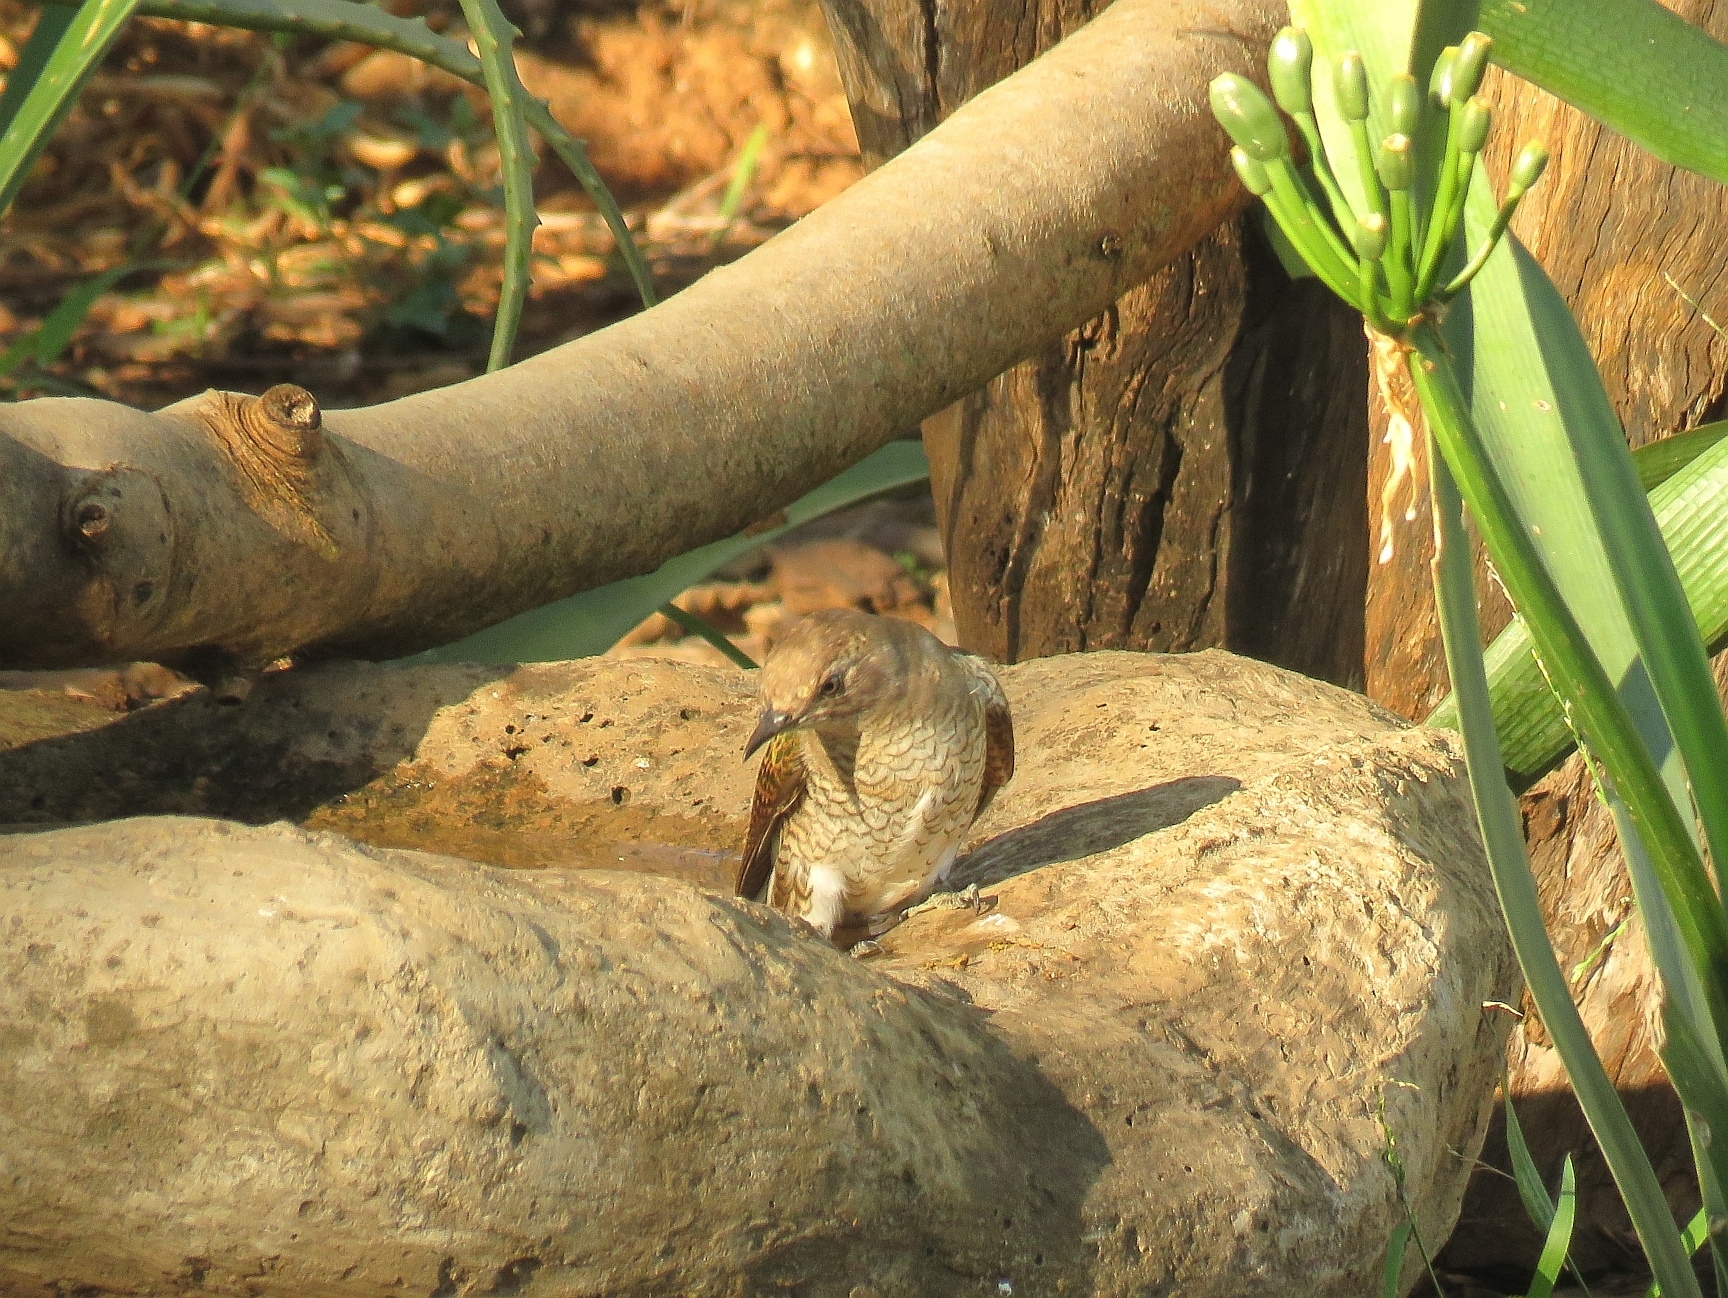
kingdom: Animalia
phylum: Chordata
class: Aves
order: Cuculiformes
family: Cuculidae
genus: Chrysococcyx
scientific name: Chrysococcyx klaas
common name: Klaas's cuckoo
